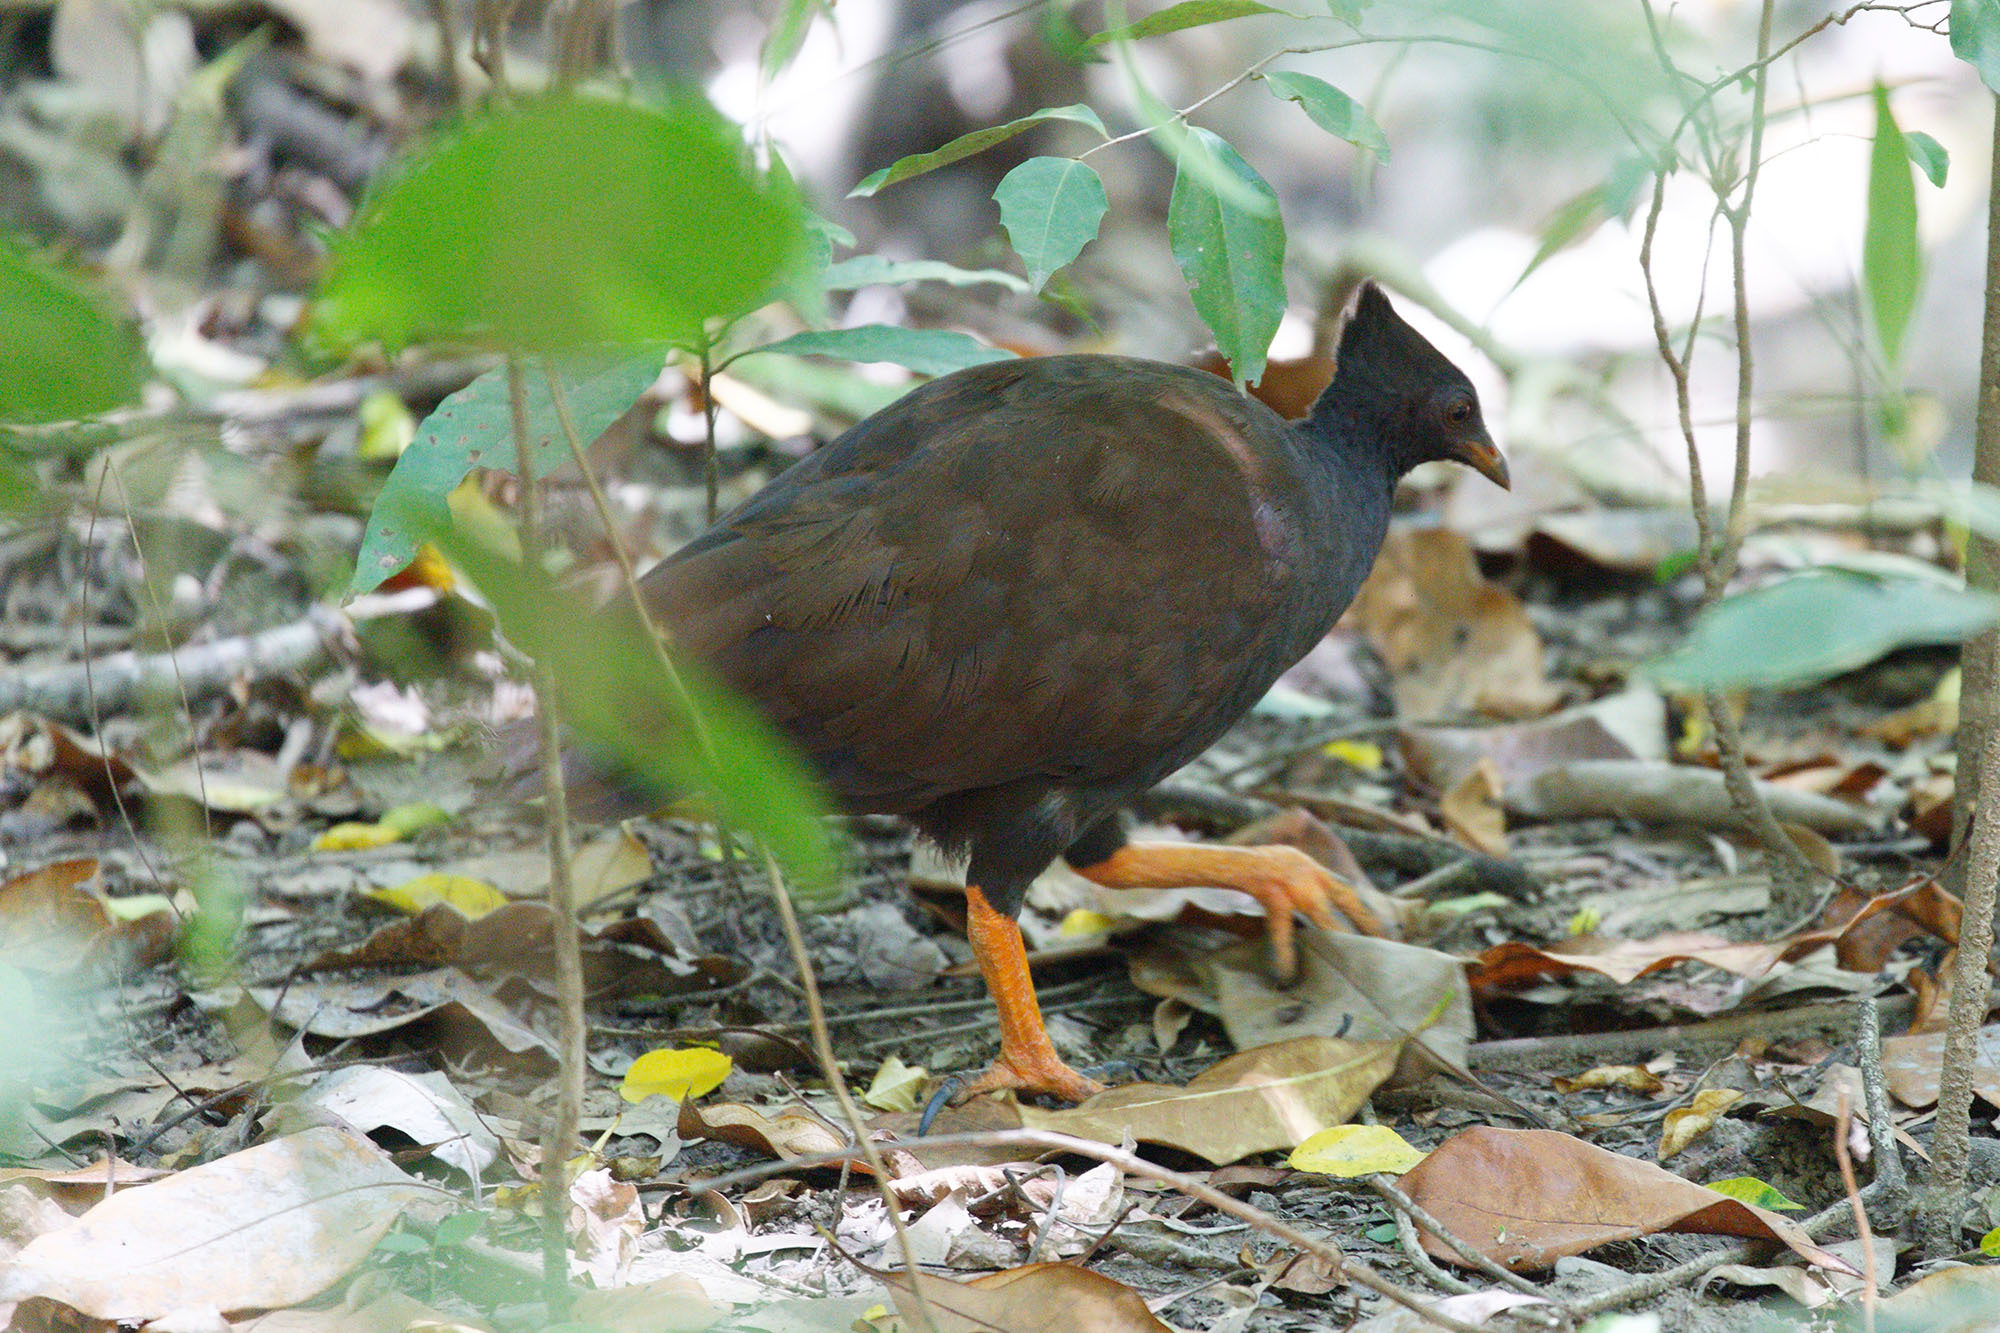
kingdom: Animalia
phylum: Chordata
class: Aves
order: Galliformes
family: Megapodiidae
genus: Megapodius
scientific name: Megapodius reinwardt
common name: Orange-footed scrubfowl
